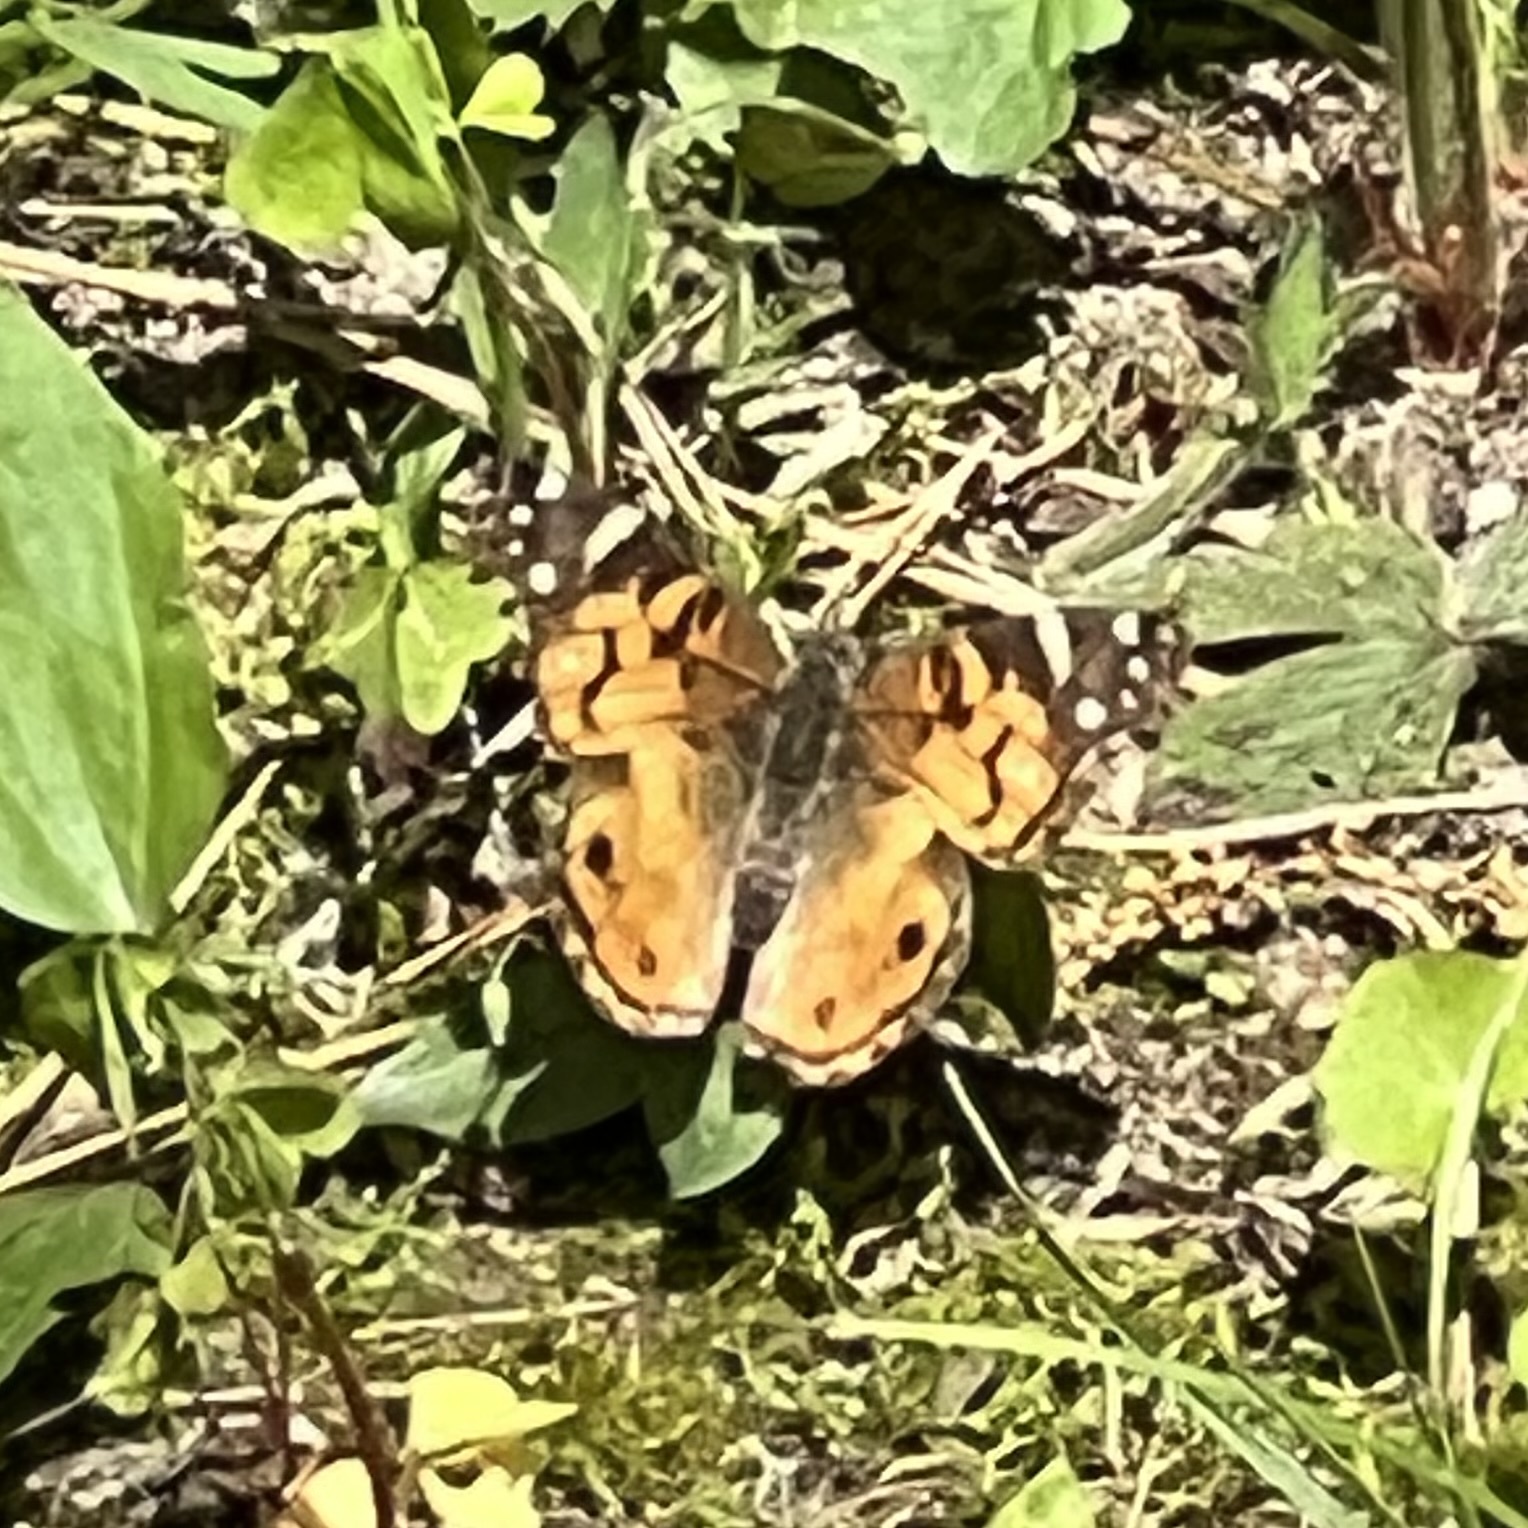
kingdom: Animalia
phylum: Arthropoda
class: Insecta
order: Lepidoptera
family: Nymphalidae
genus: Vanessa
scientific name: Vanessa virginiensis
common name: American lady
